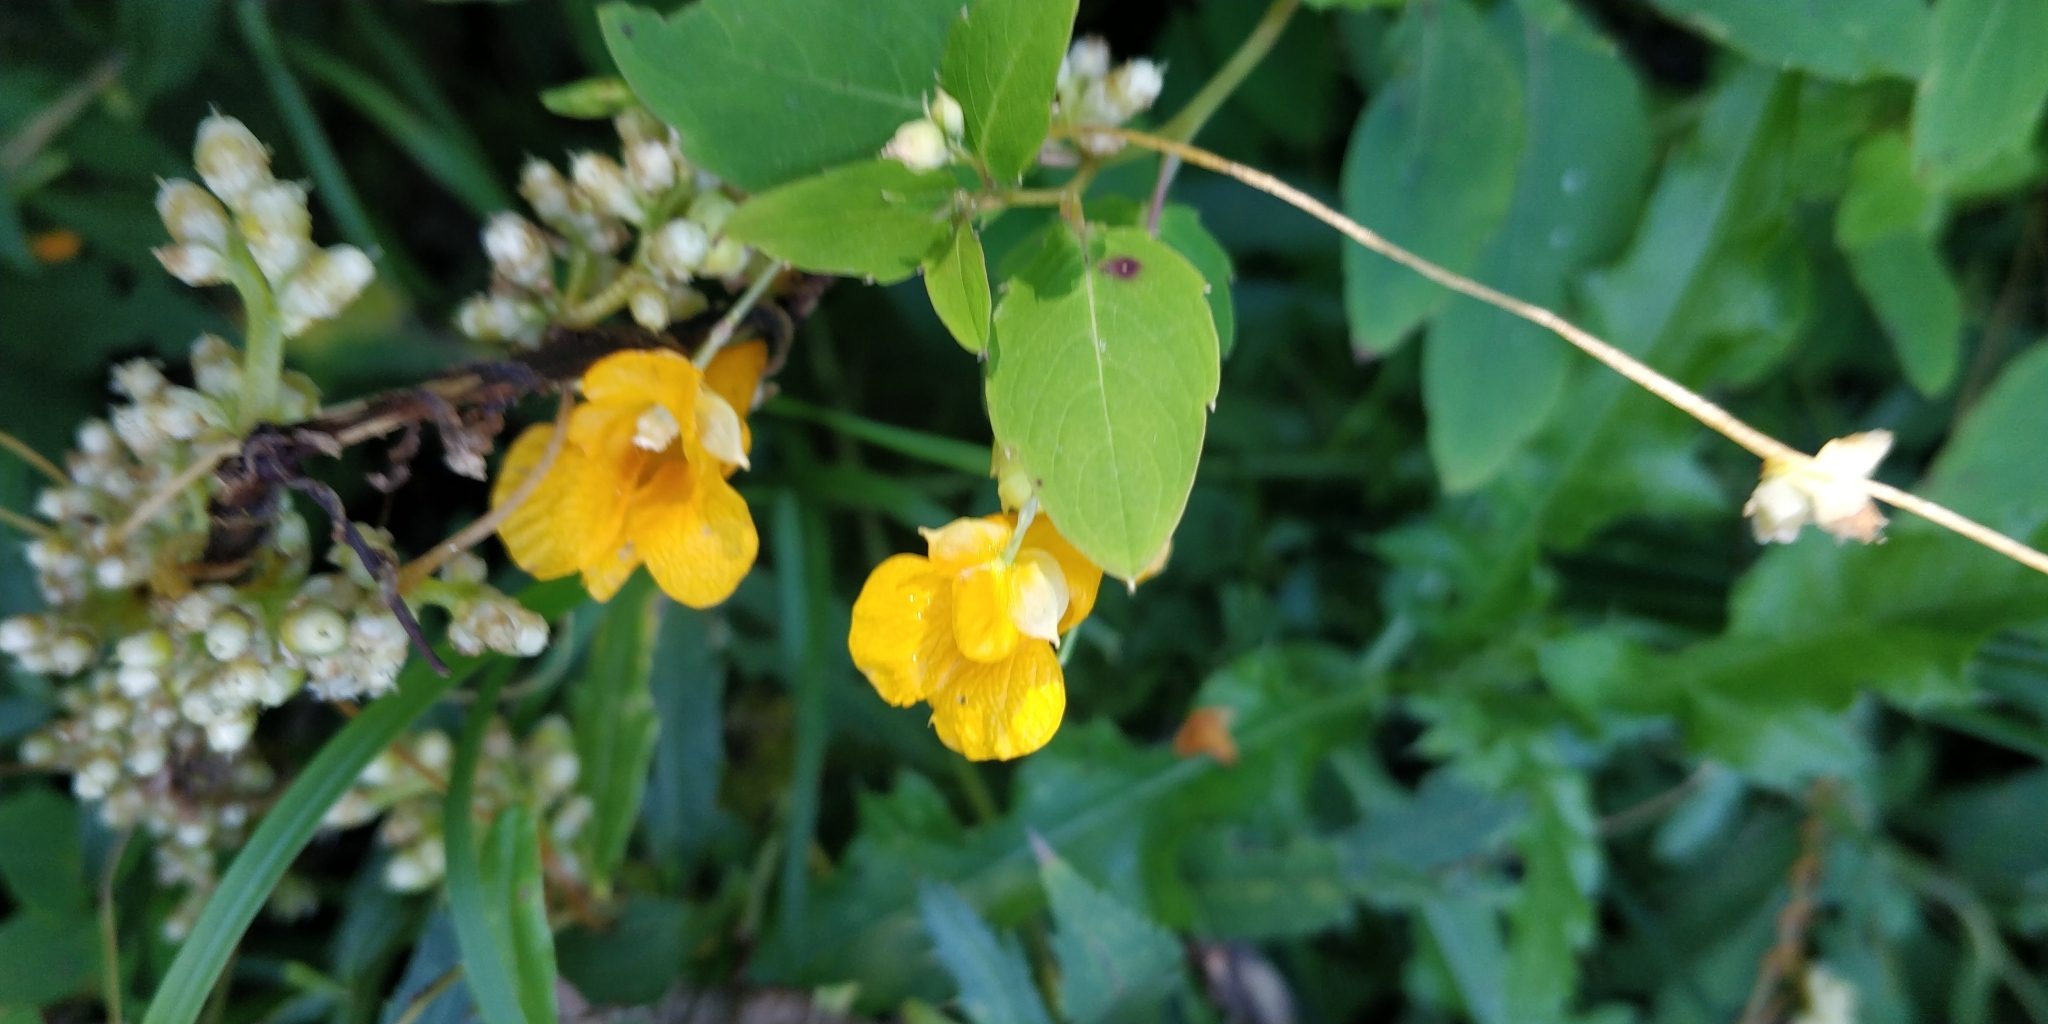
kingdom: Plantae
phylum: Tracheophyta
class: Magnoliopsida
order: Ericales
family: Balsaminaceae
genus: Impatiens
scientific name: Impatiens capensis
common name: Orange balsam
